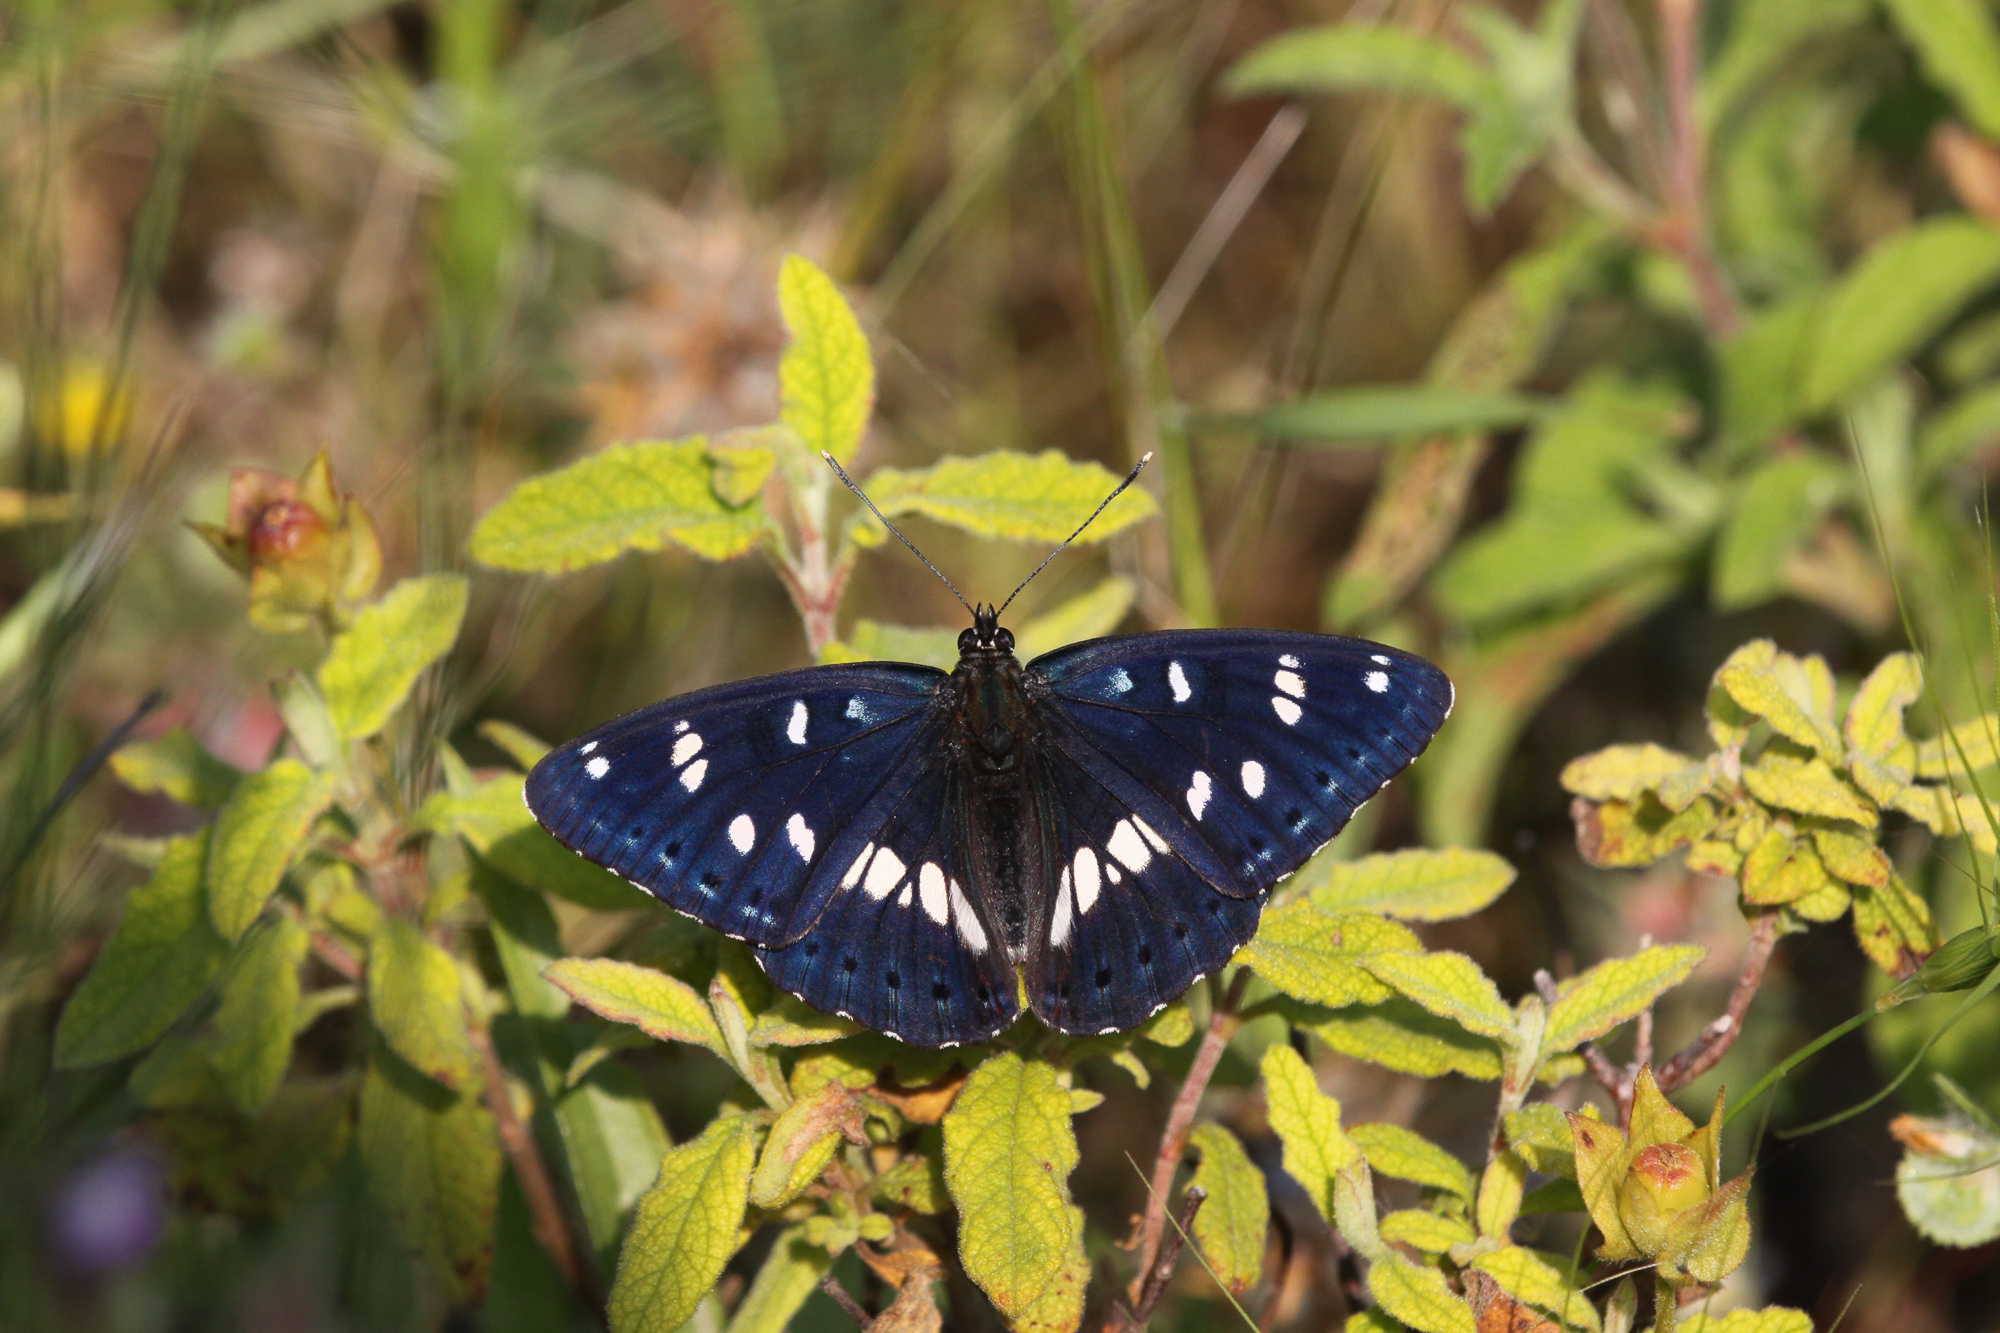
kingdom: Animalia
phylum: Arthropoda
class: Insecta
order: Lepidoptera
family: Nymphalidae
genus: Limenitis
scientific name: Limenitis reducta
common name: Southern white admiral
